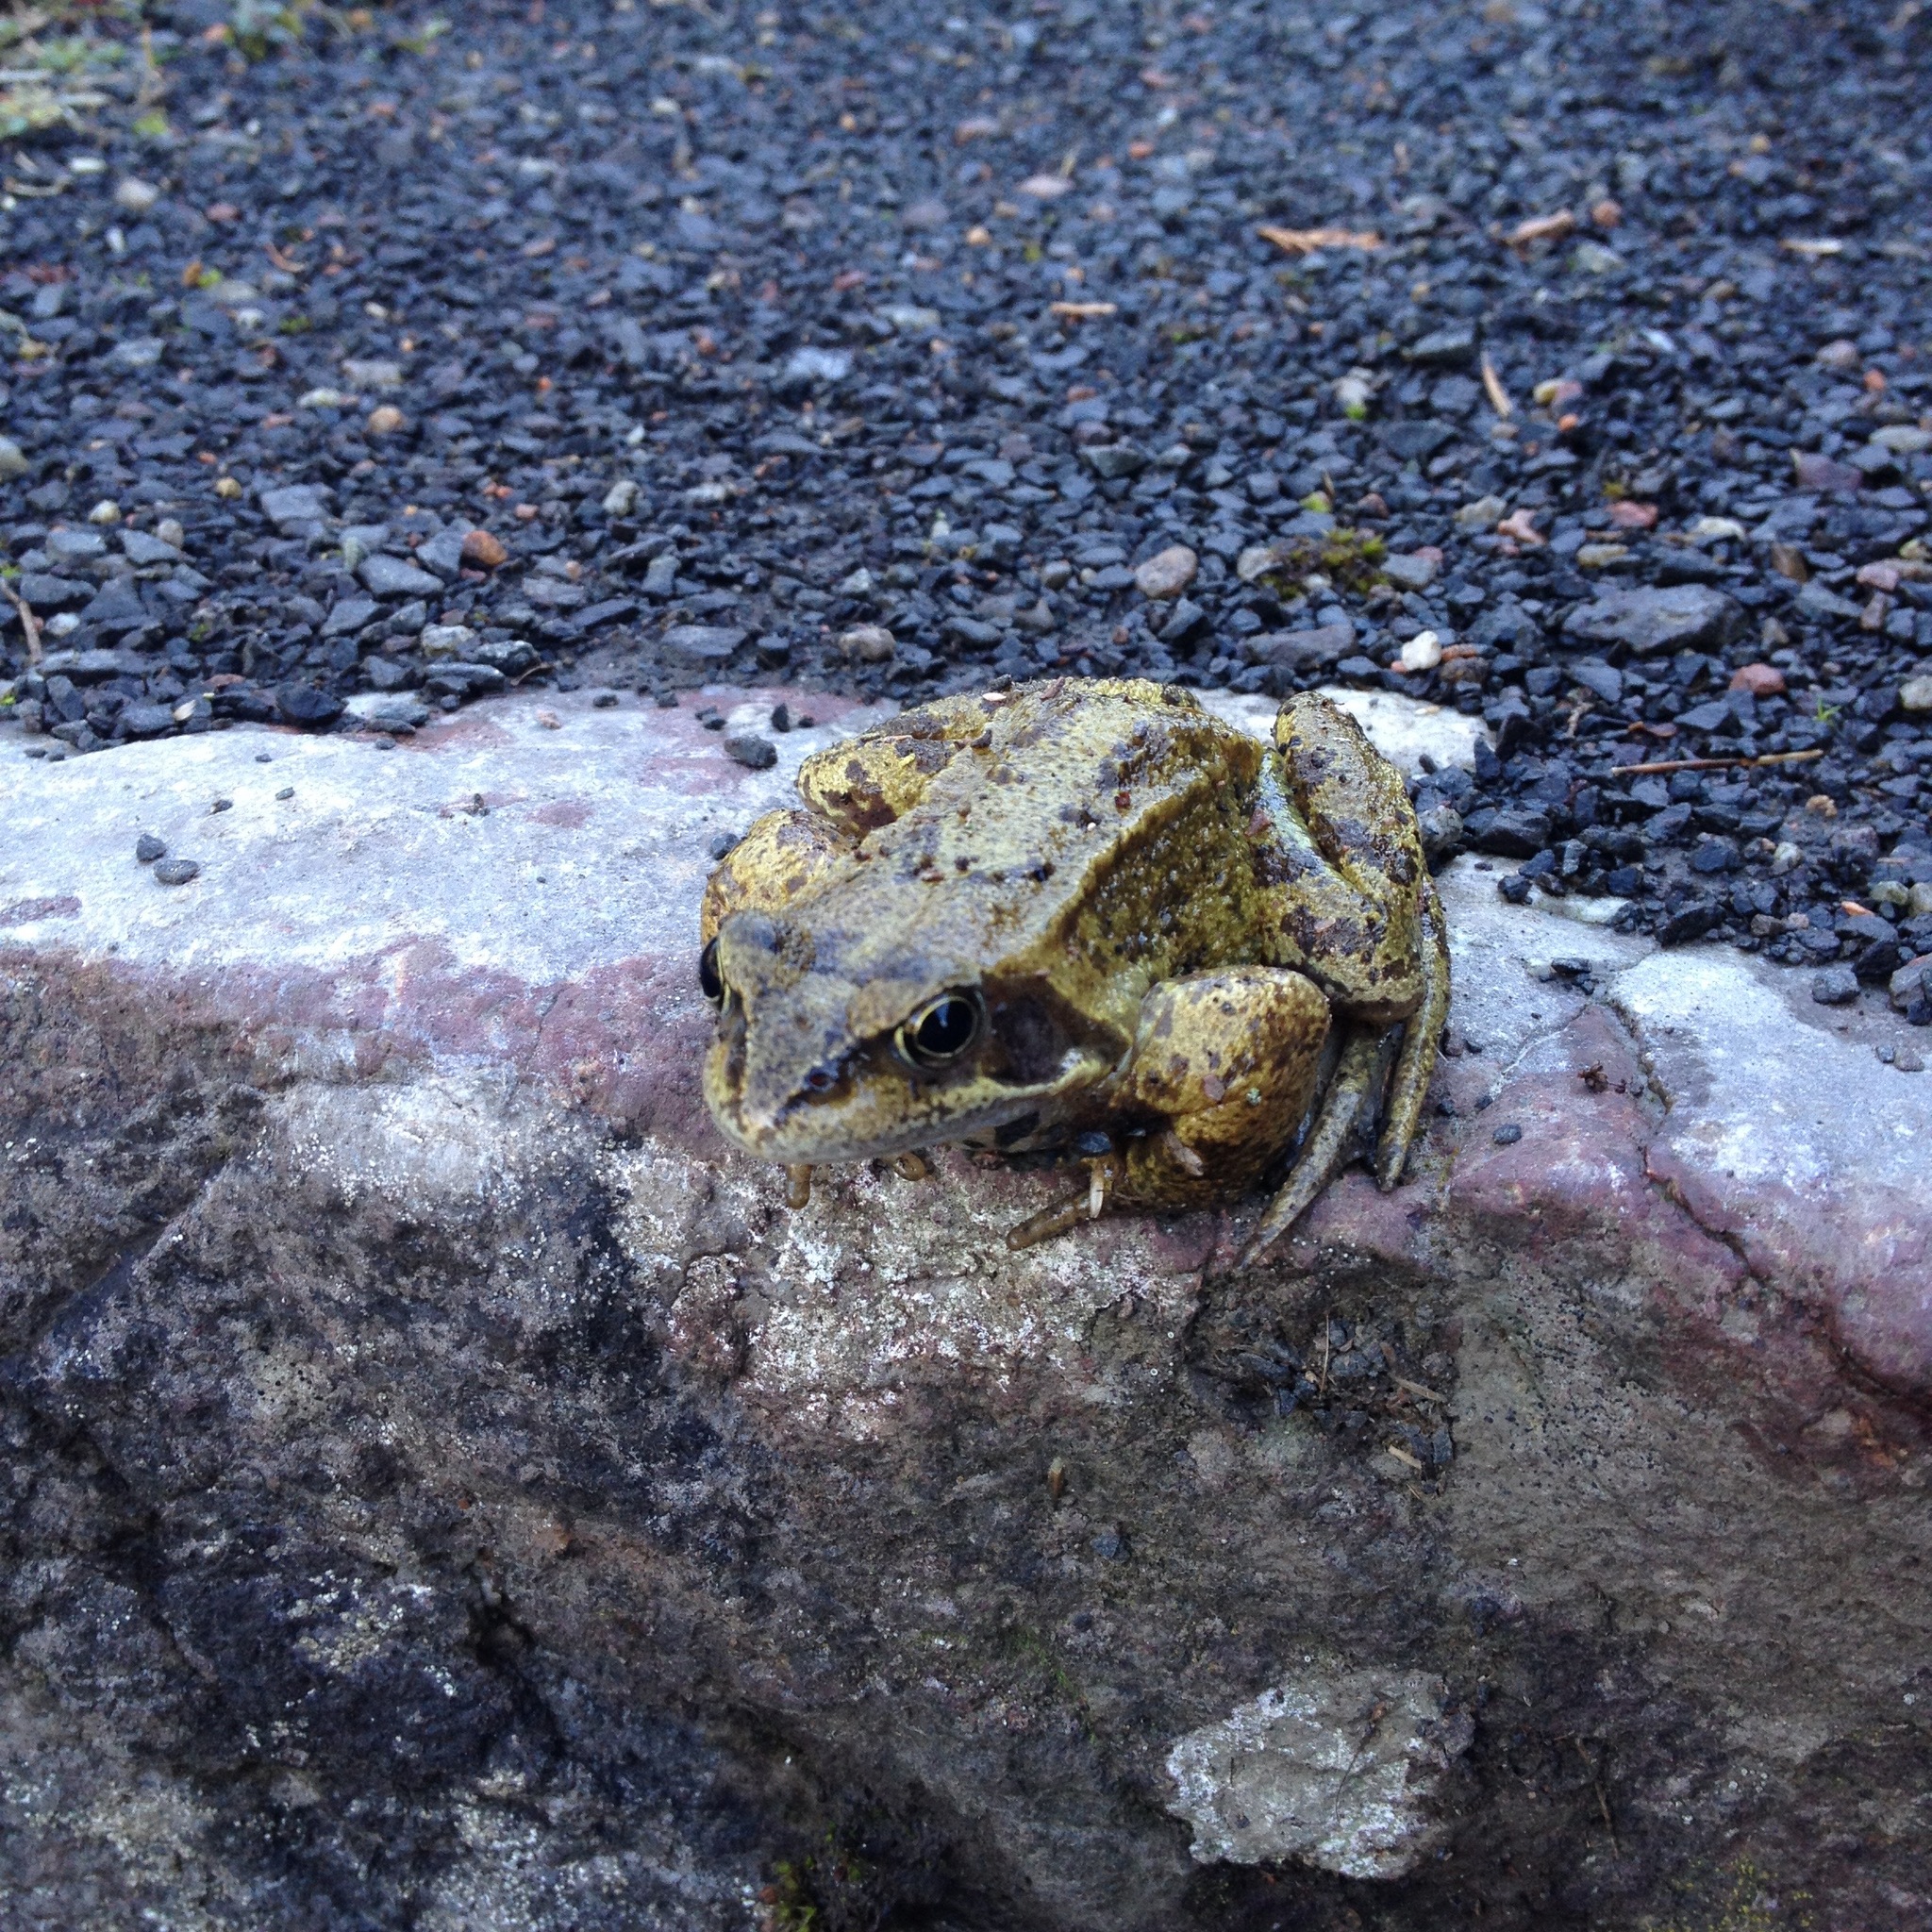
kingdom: Animalia
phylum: Chordata
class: Amphibia
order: Anura
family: Ranidae
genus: Rana
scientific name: Rana temporaria
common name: Common frog
